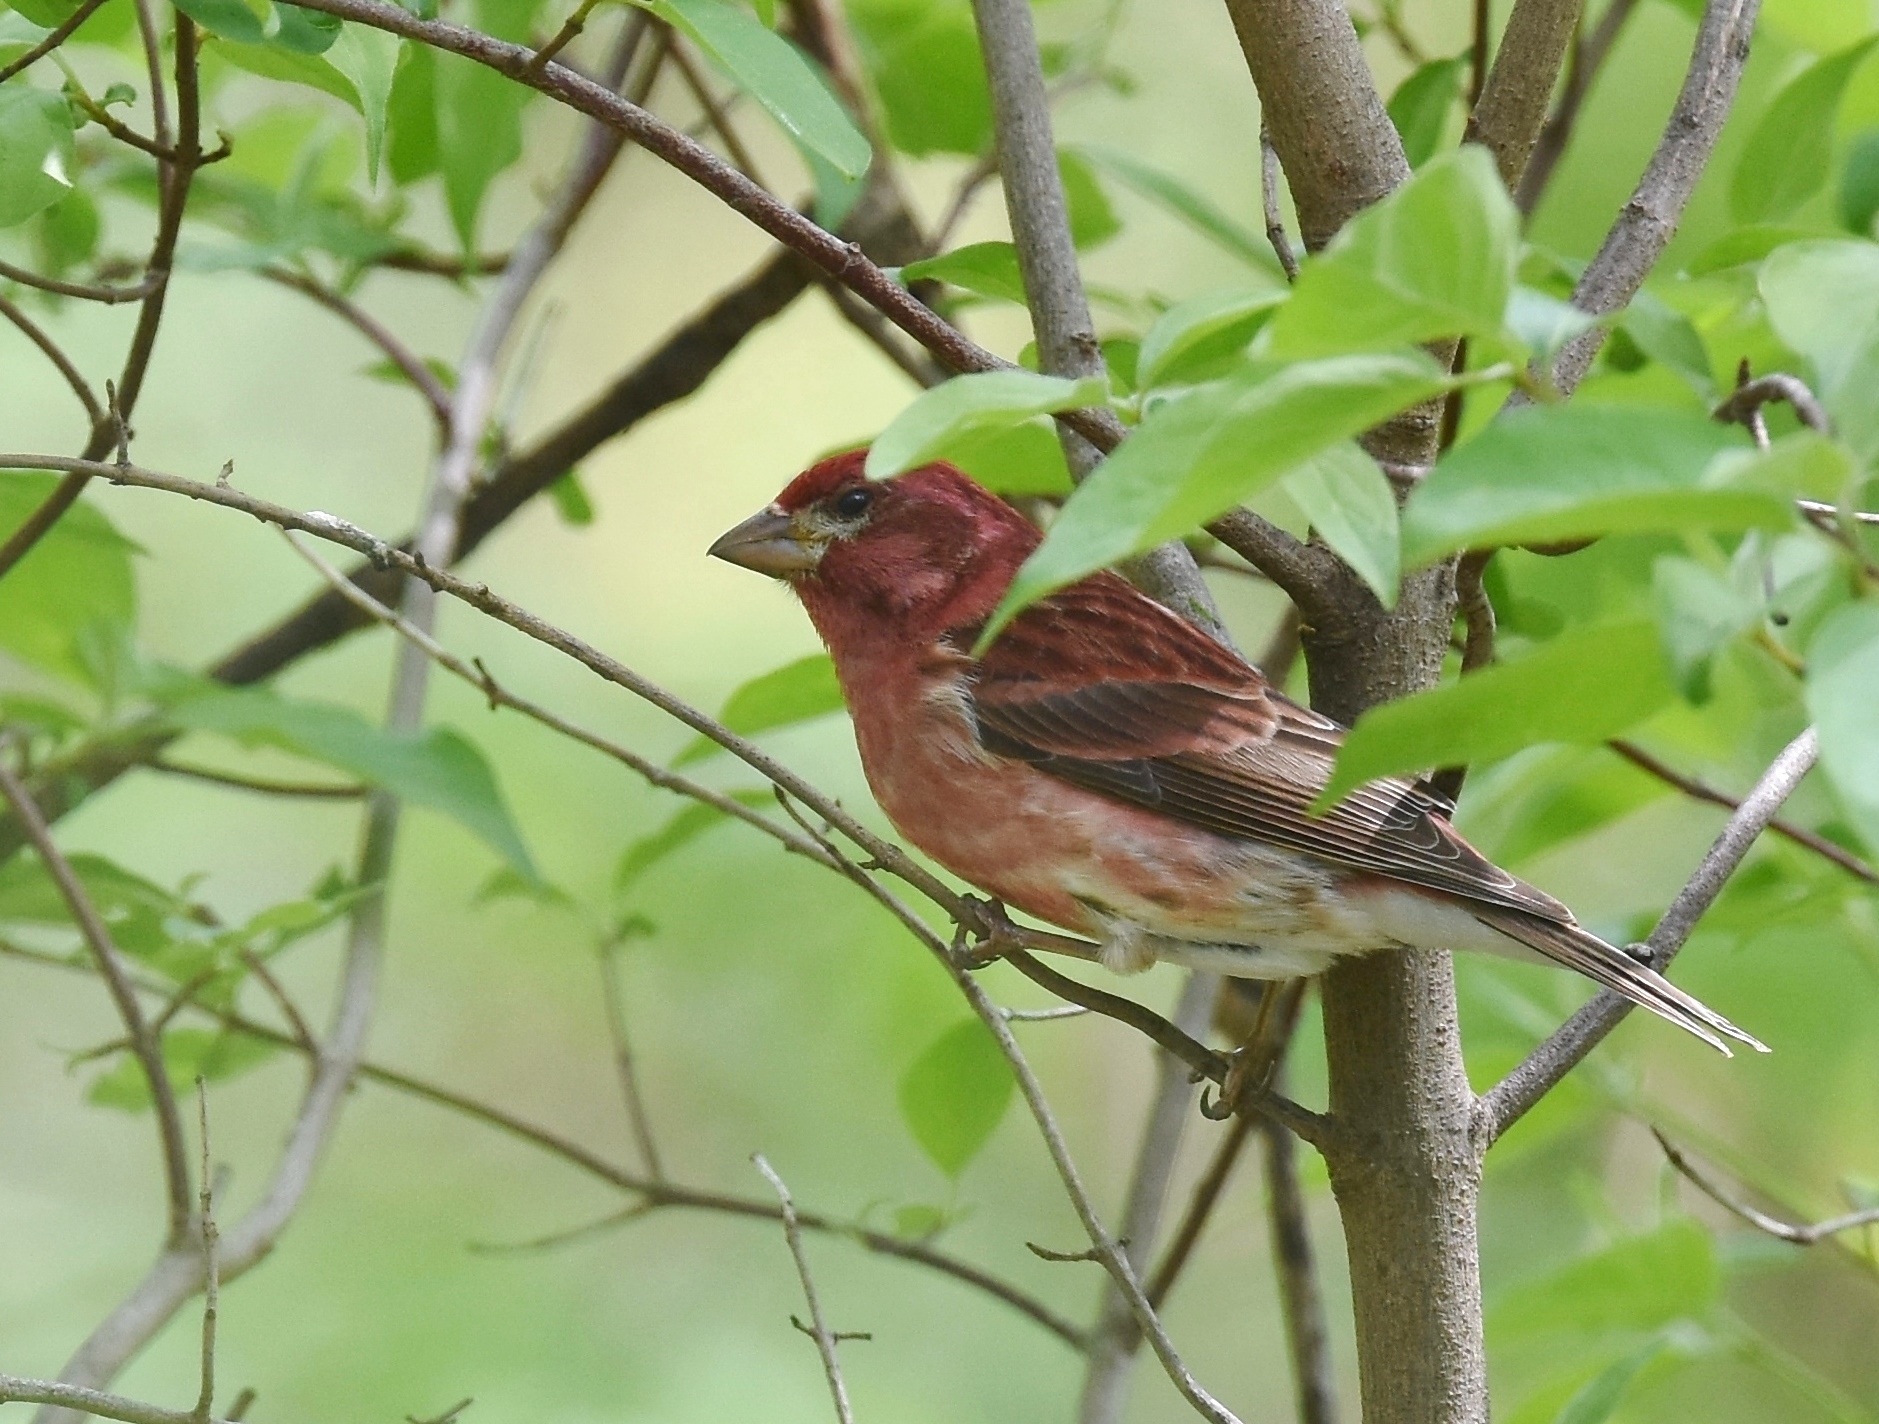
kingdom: Animalia
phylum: Chordata
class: Aves
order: Passeriformes
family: Fringillidae
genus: Haemorhous
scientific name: Haemorhous purpureus
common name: Purple finch
